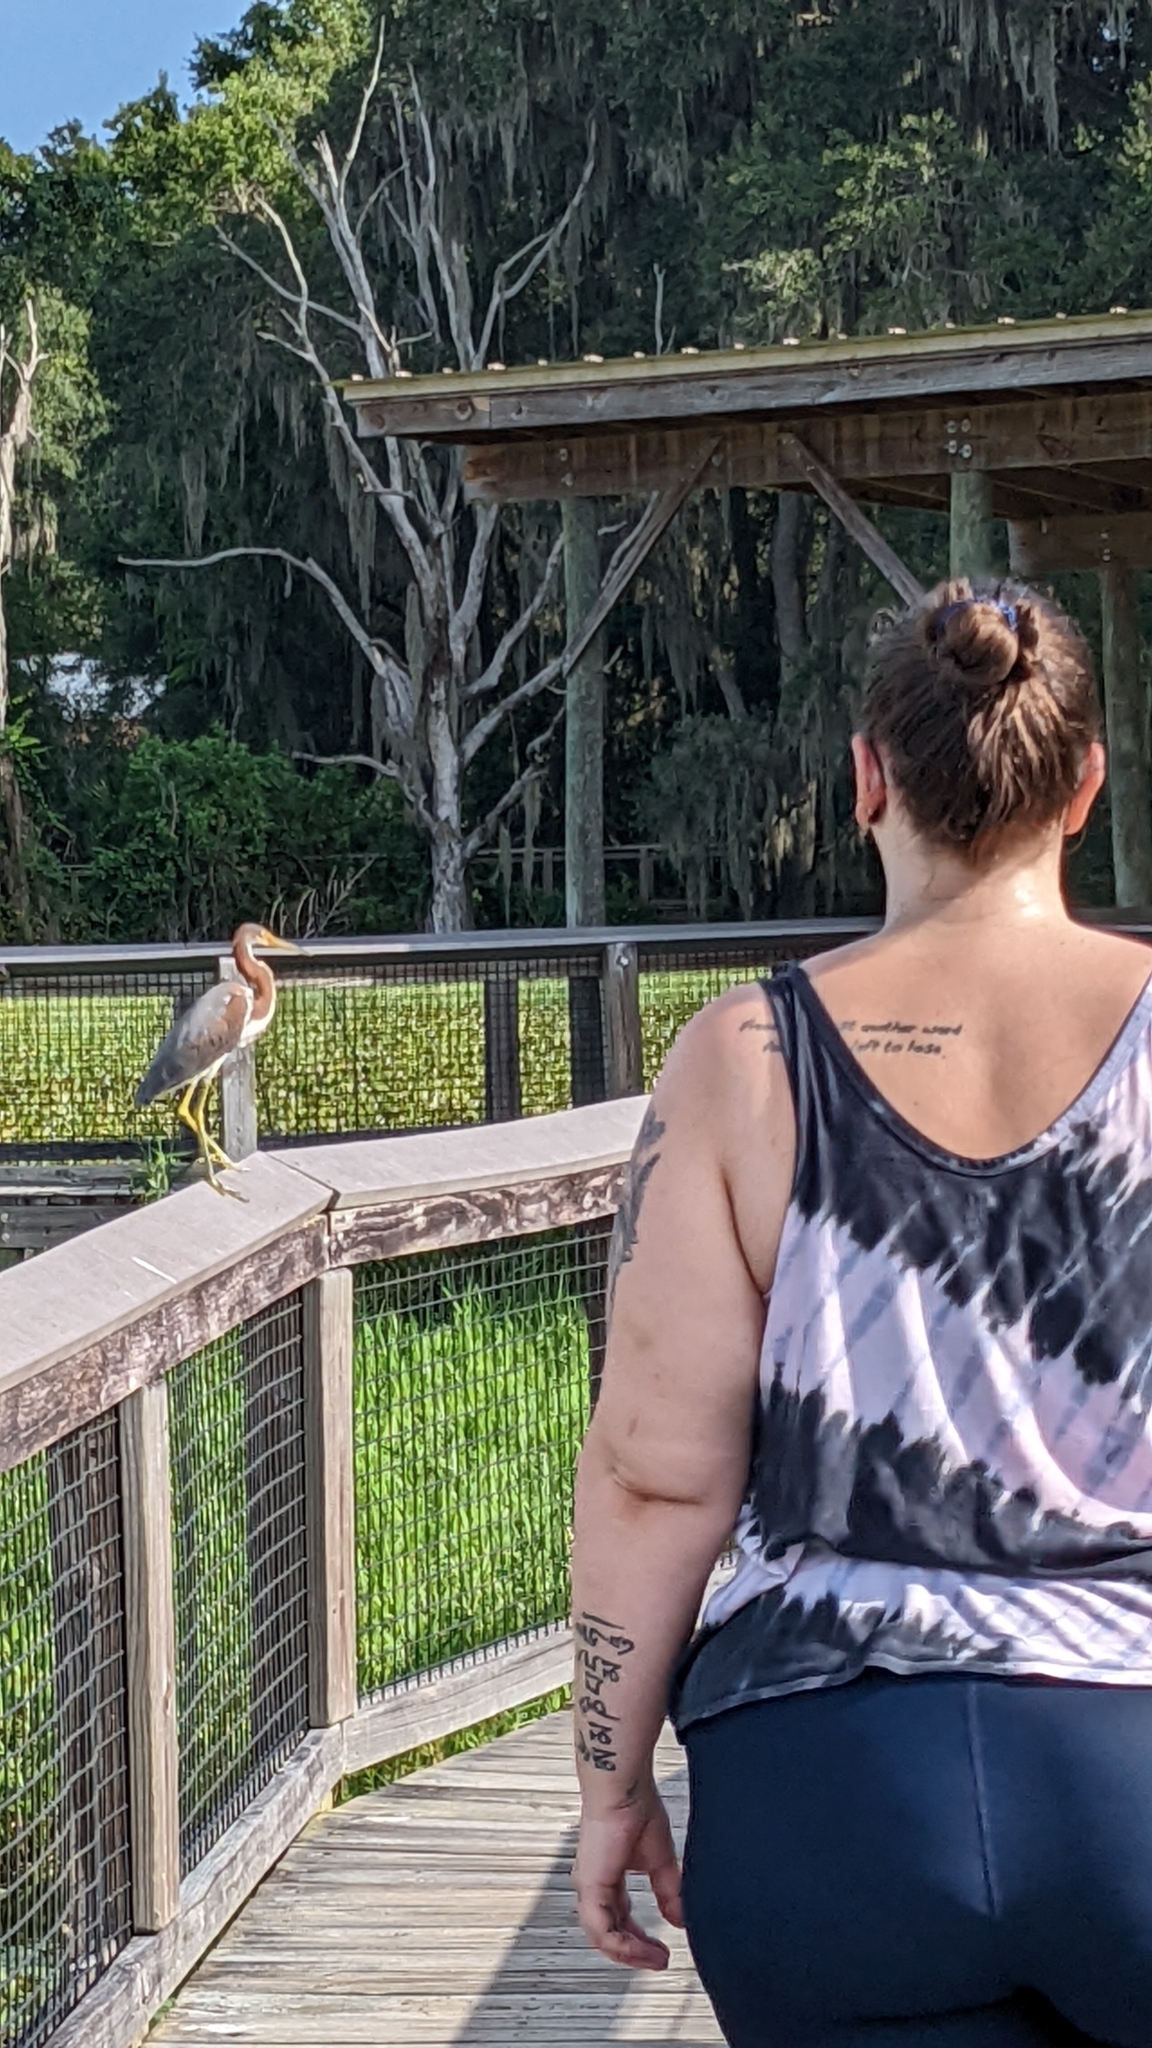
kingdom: Animalia
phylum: Chordata
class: Aves
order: Pelecaniformes
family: Ardeidae
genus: Egretta
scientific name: Egretta tricolor
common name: Tricolored heron
